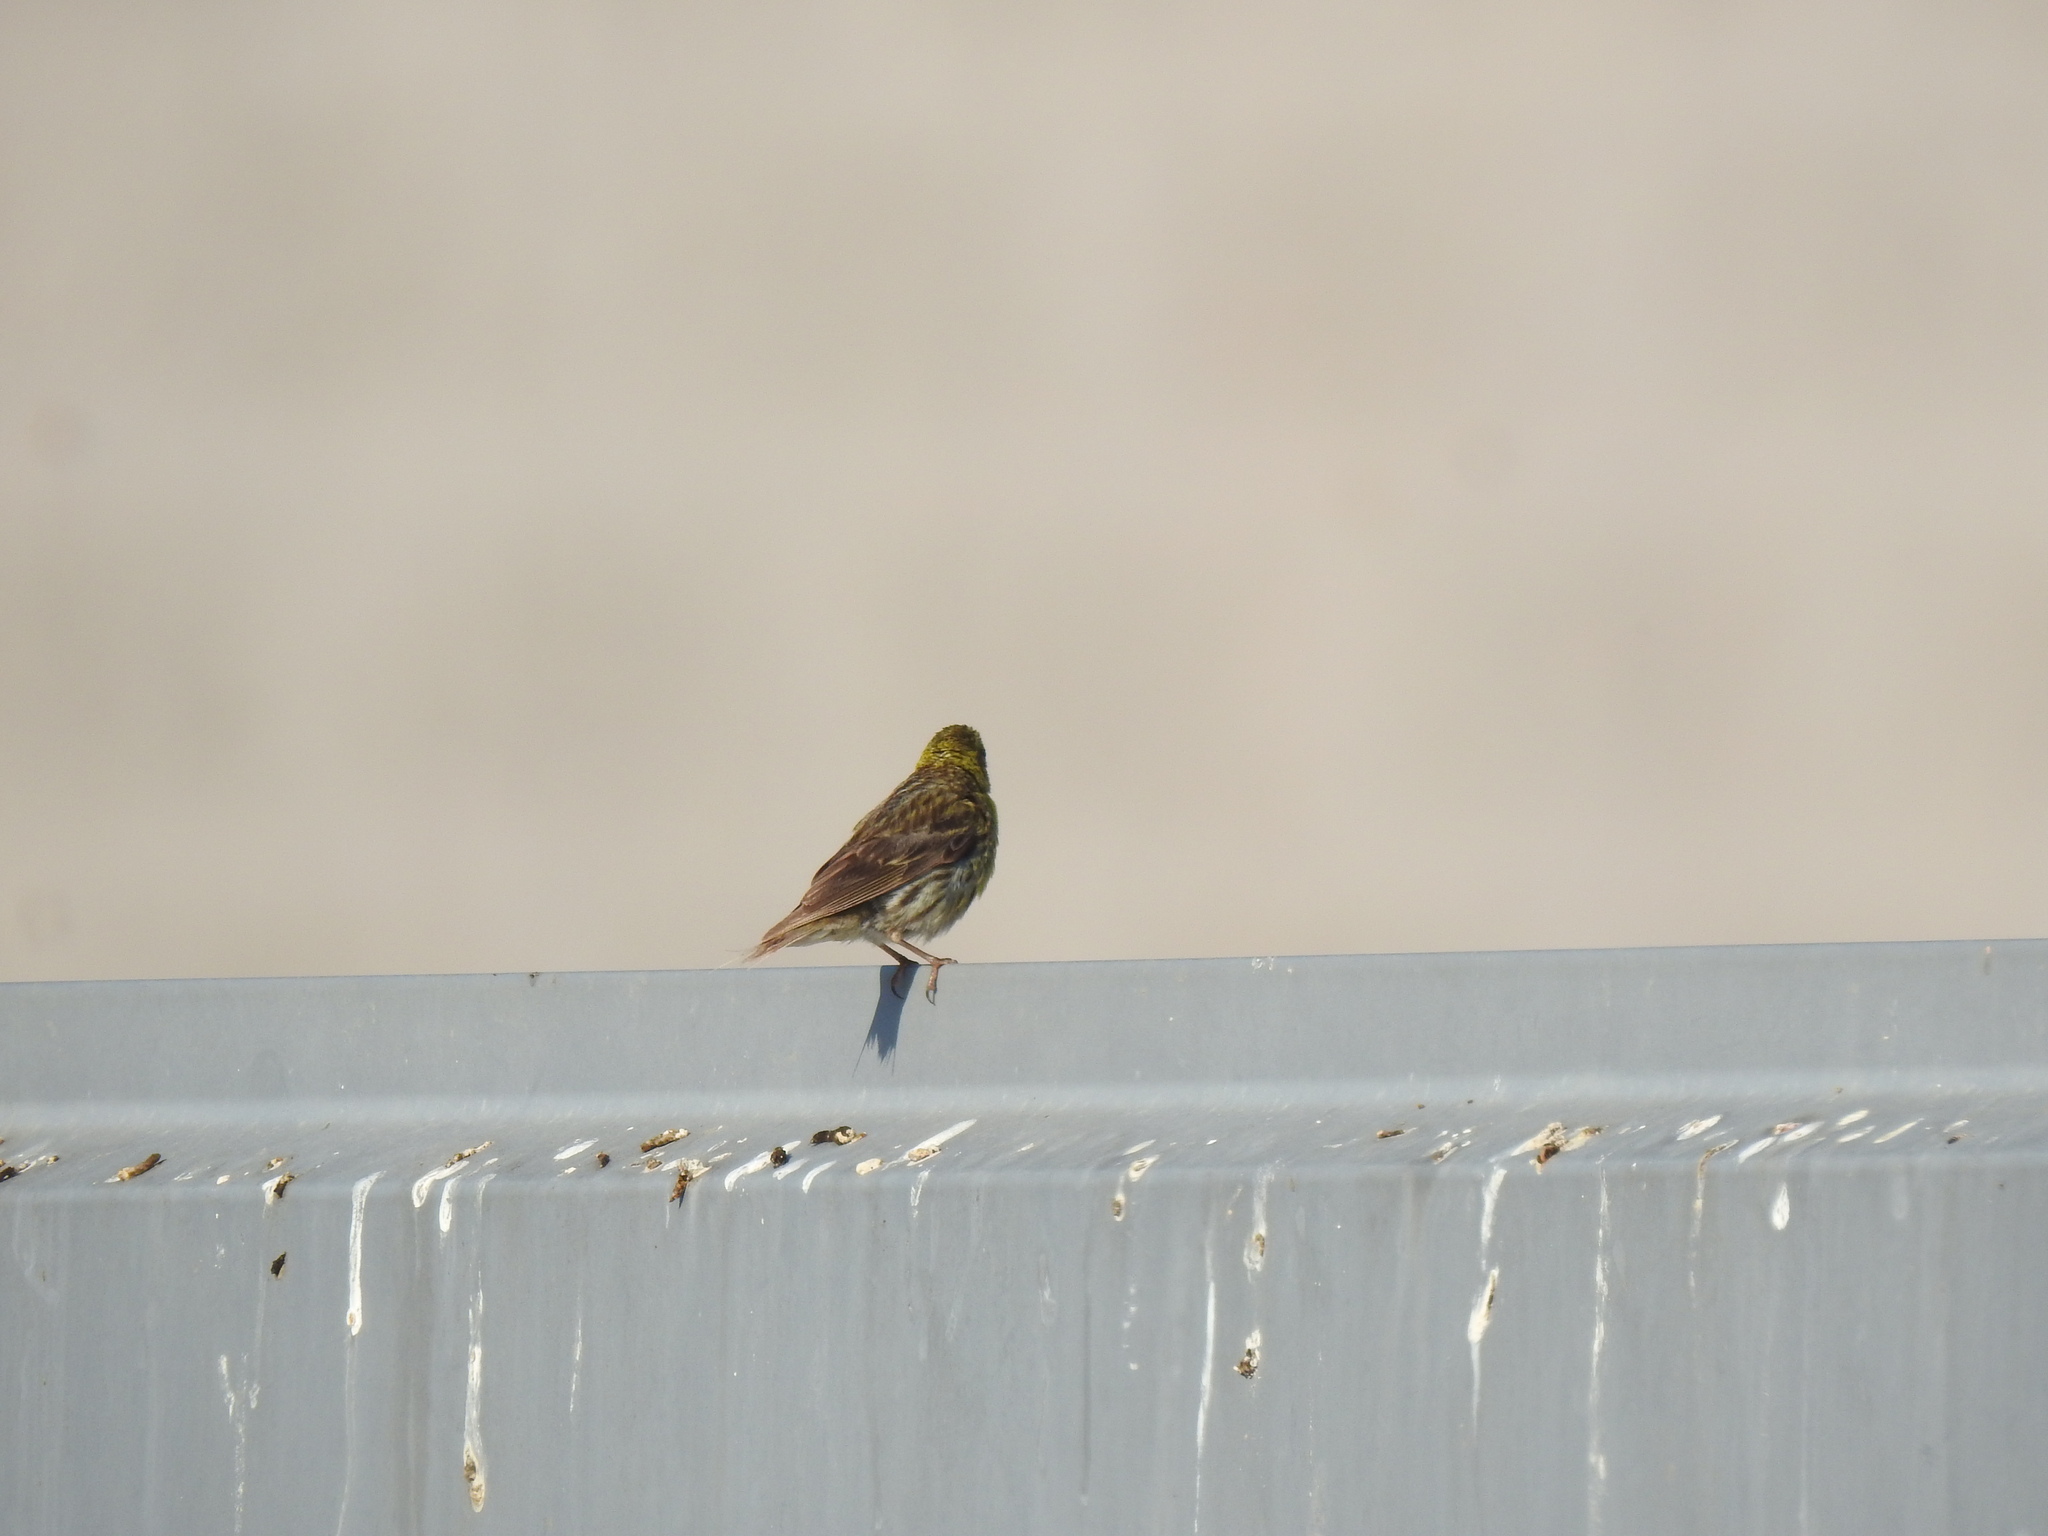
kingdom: Animalia
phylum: Chordata
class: Aves
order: Passeriformes
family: Fringillidae
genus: Serinus
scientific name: Serinus serinus
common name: European serin
